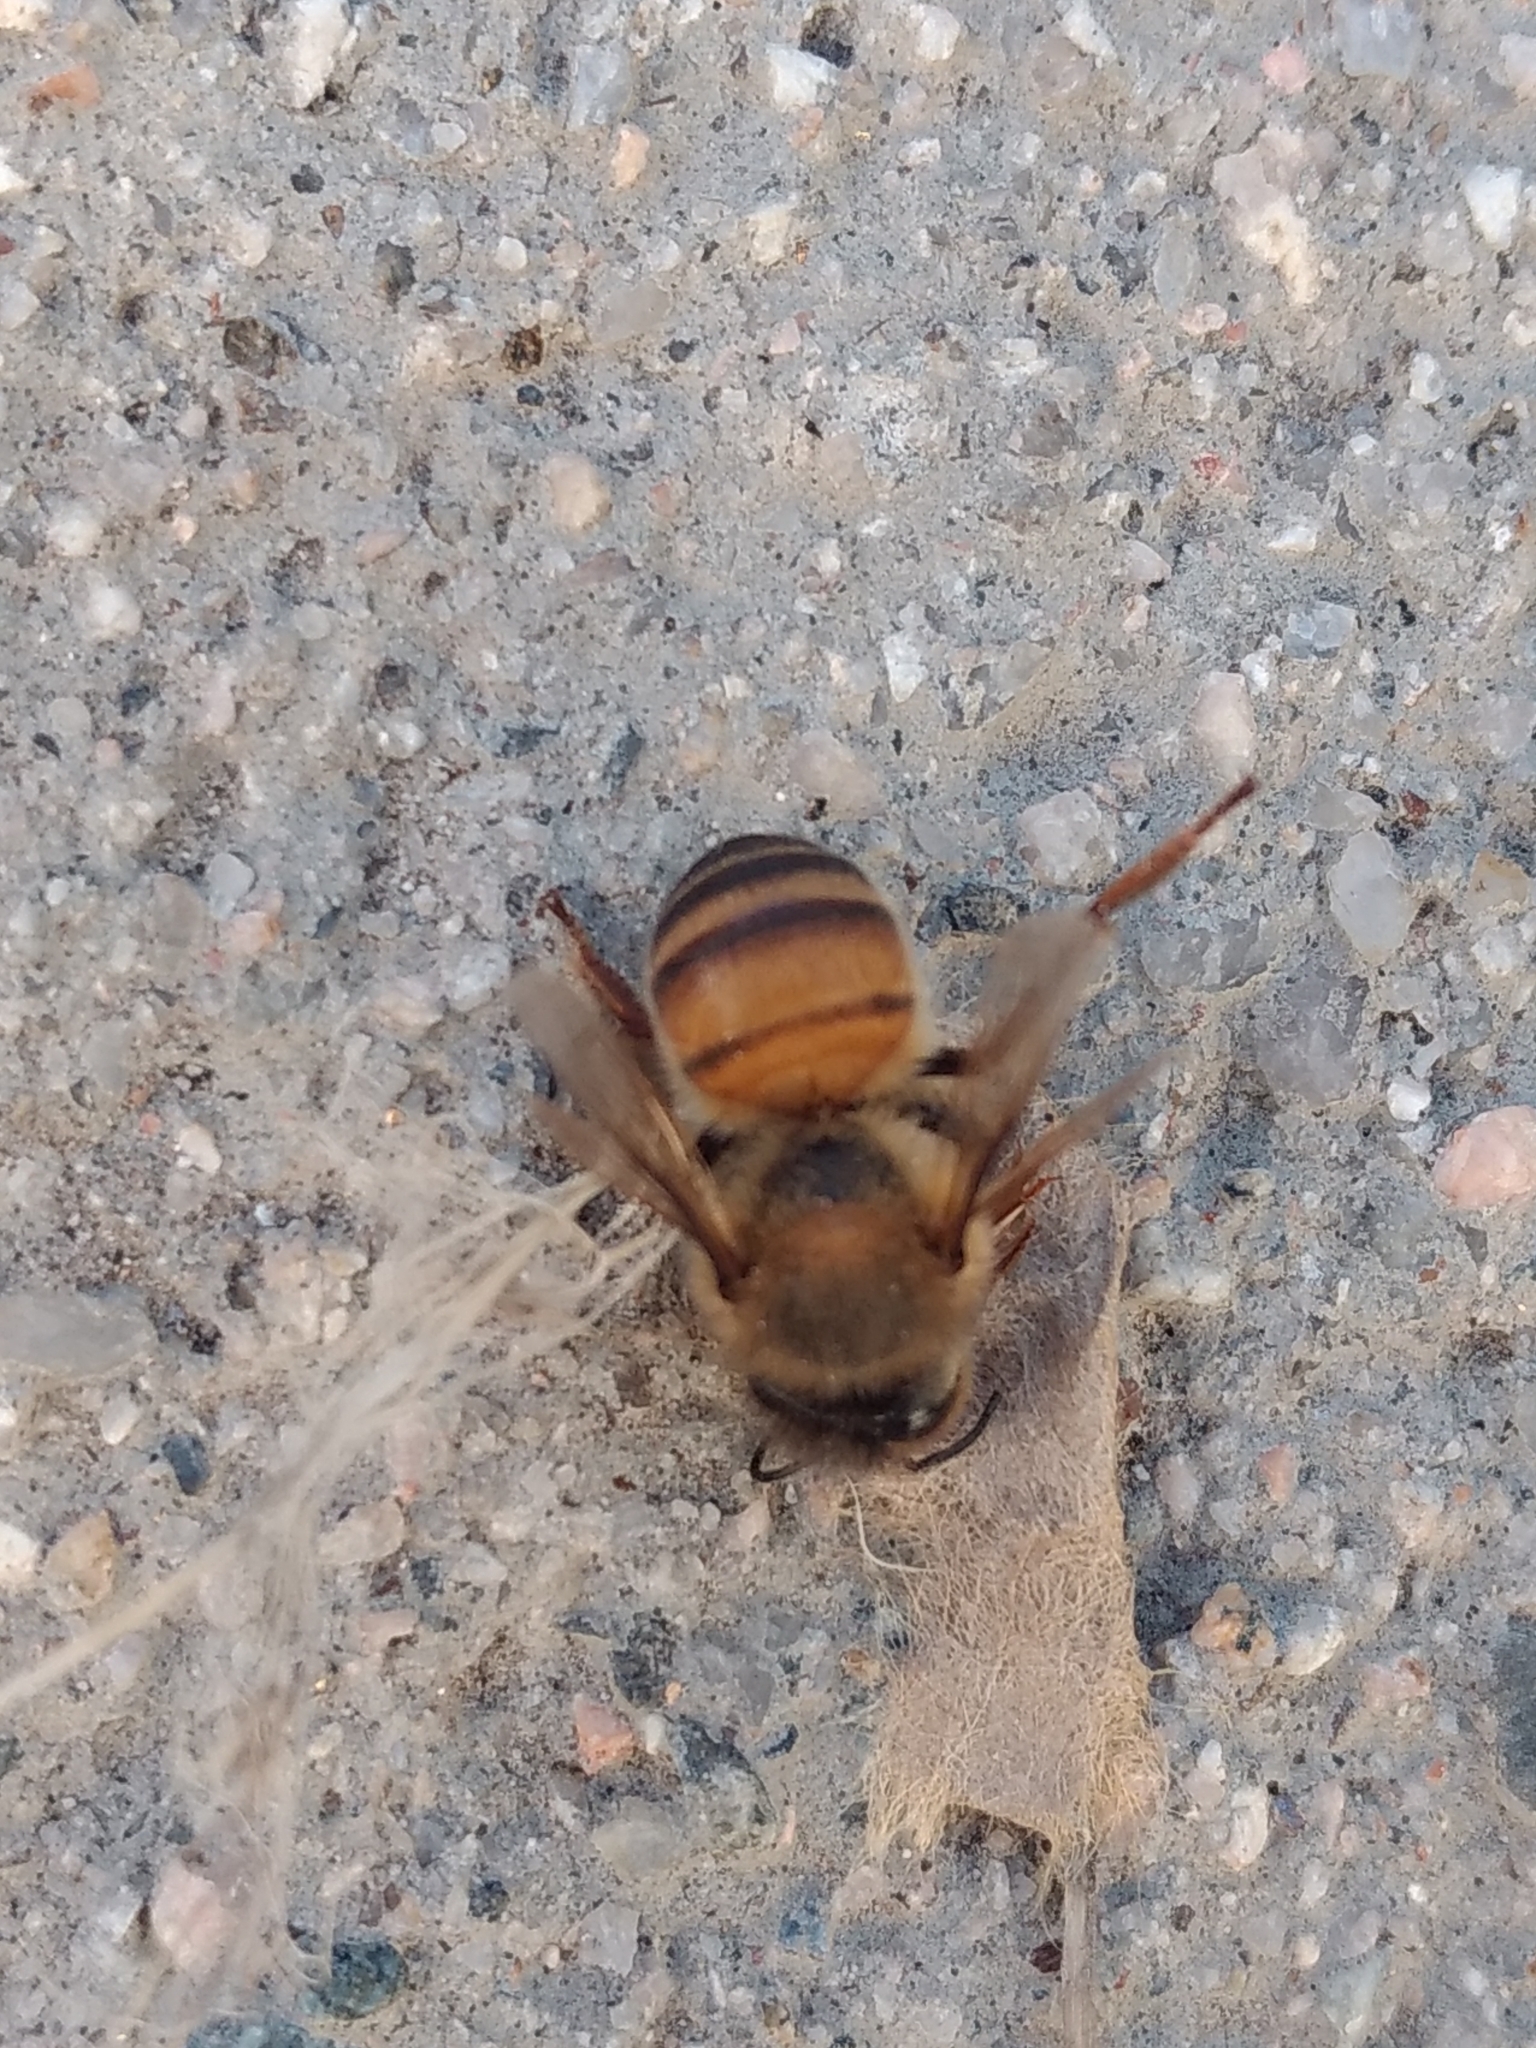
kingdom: Animalia
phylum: Arthropoda
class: Insecta
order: Hymenoptera
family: Apidae
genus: Apis
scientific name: Apis mellifera
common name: Honey bee
